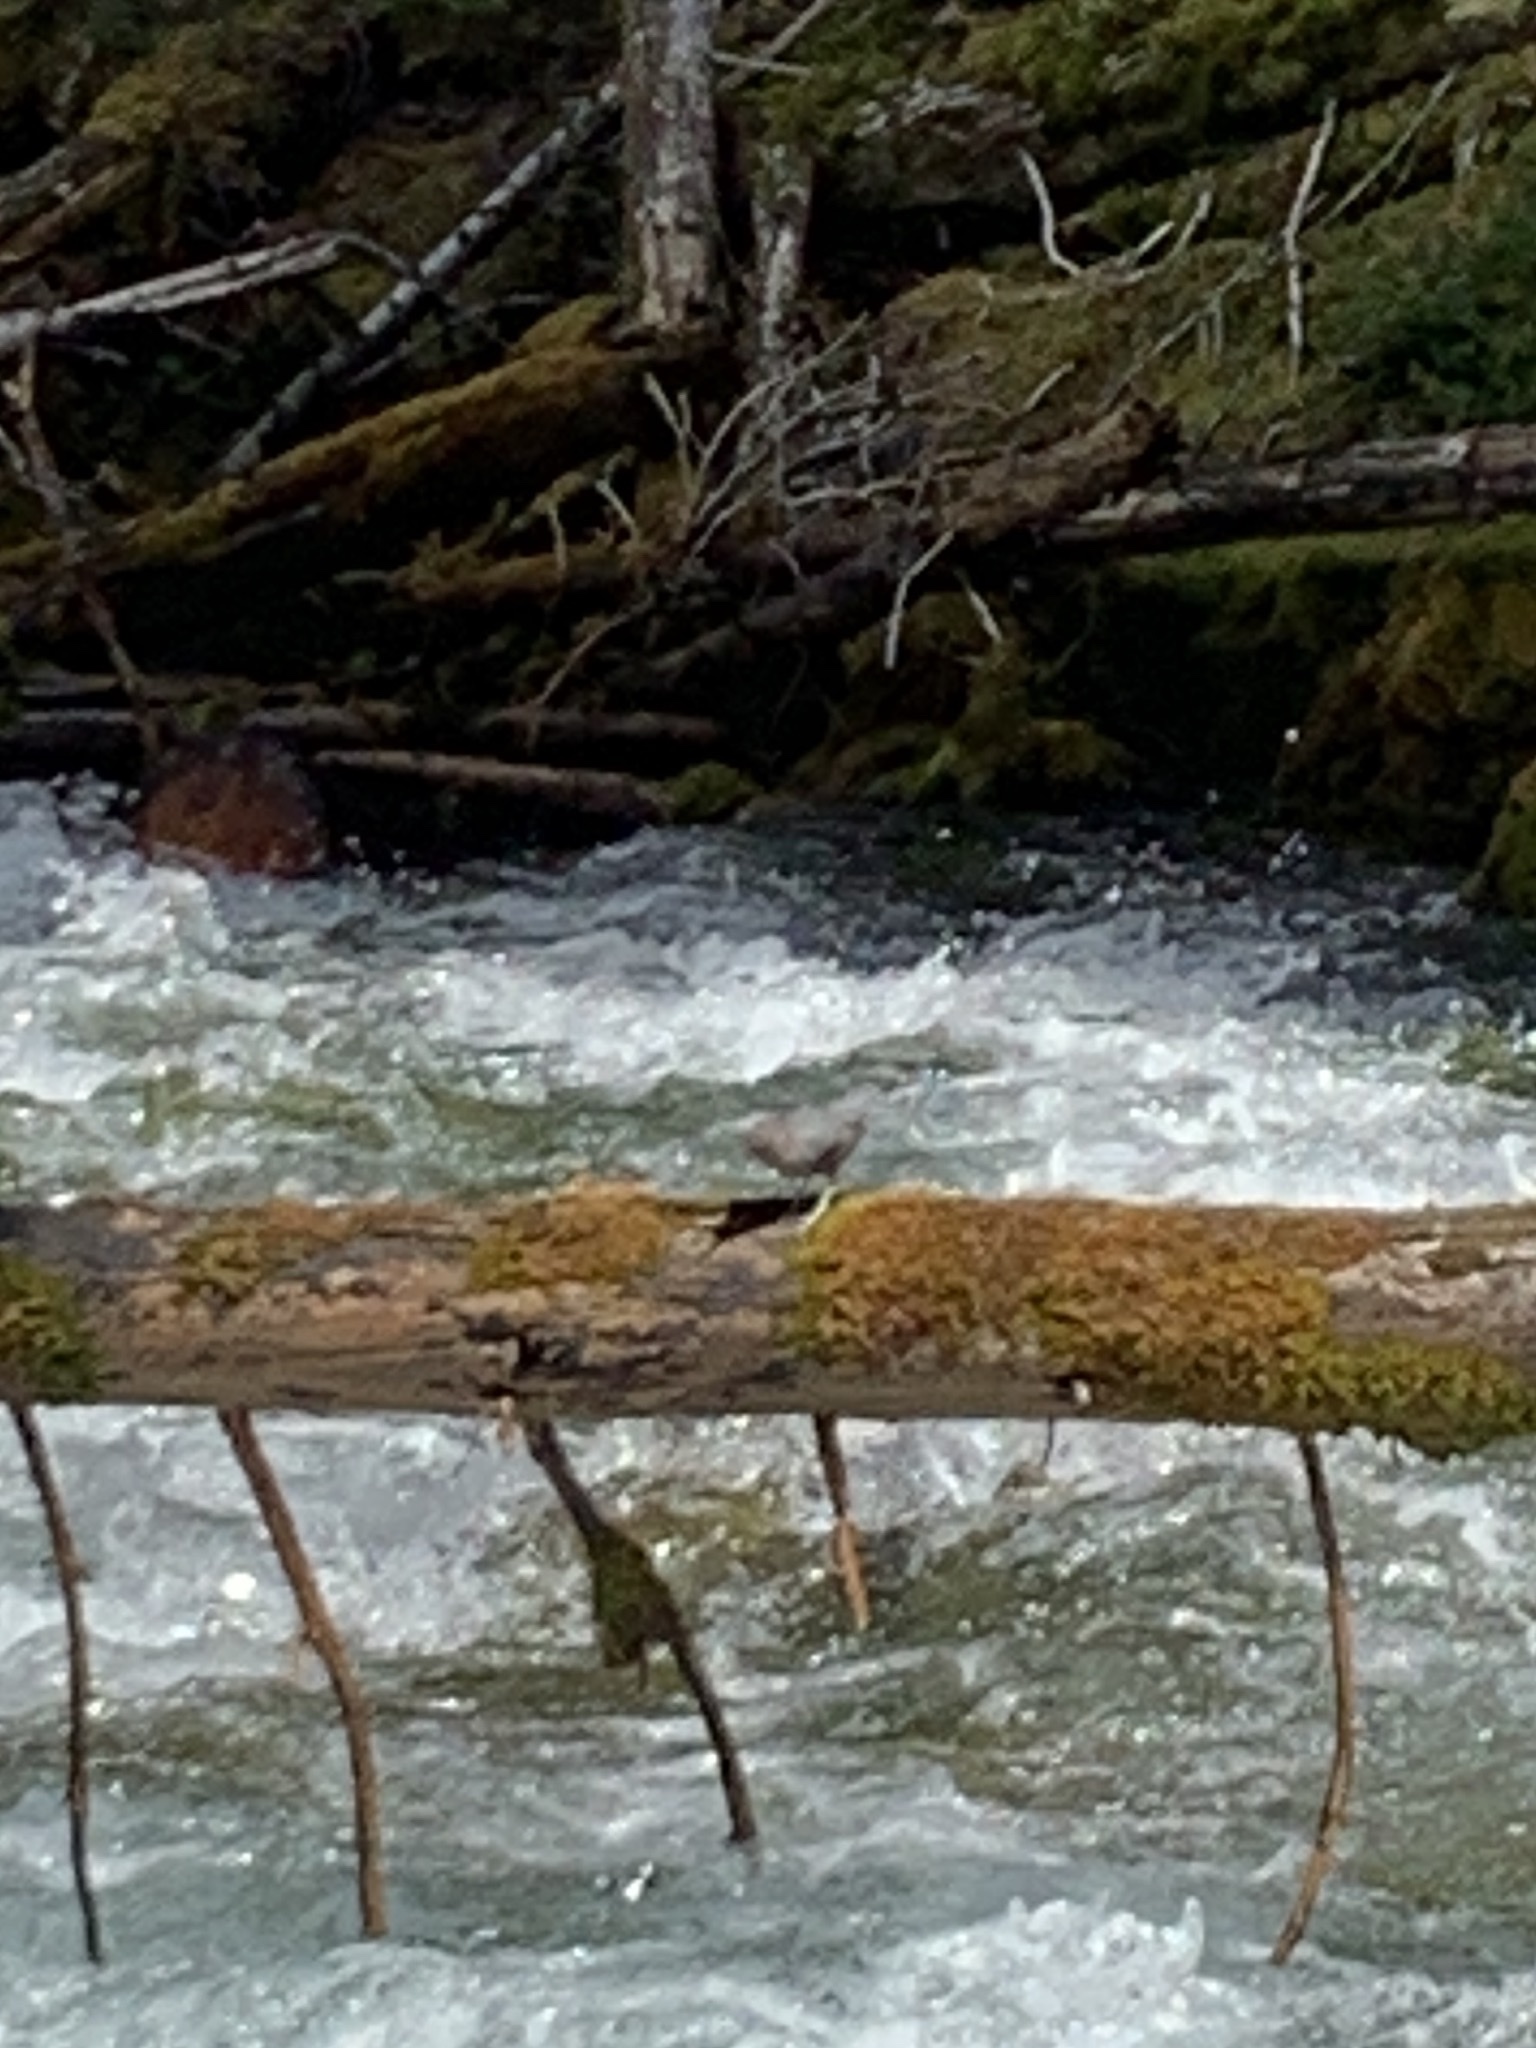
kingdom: Animalia
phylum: Chordata
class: Aves
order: Passeriformes
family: Cinclidae
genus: Cinclus
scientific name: Cinclus mexicanus
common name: American dipper
